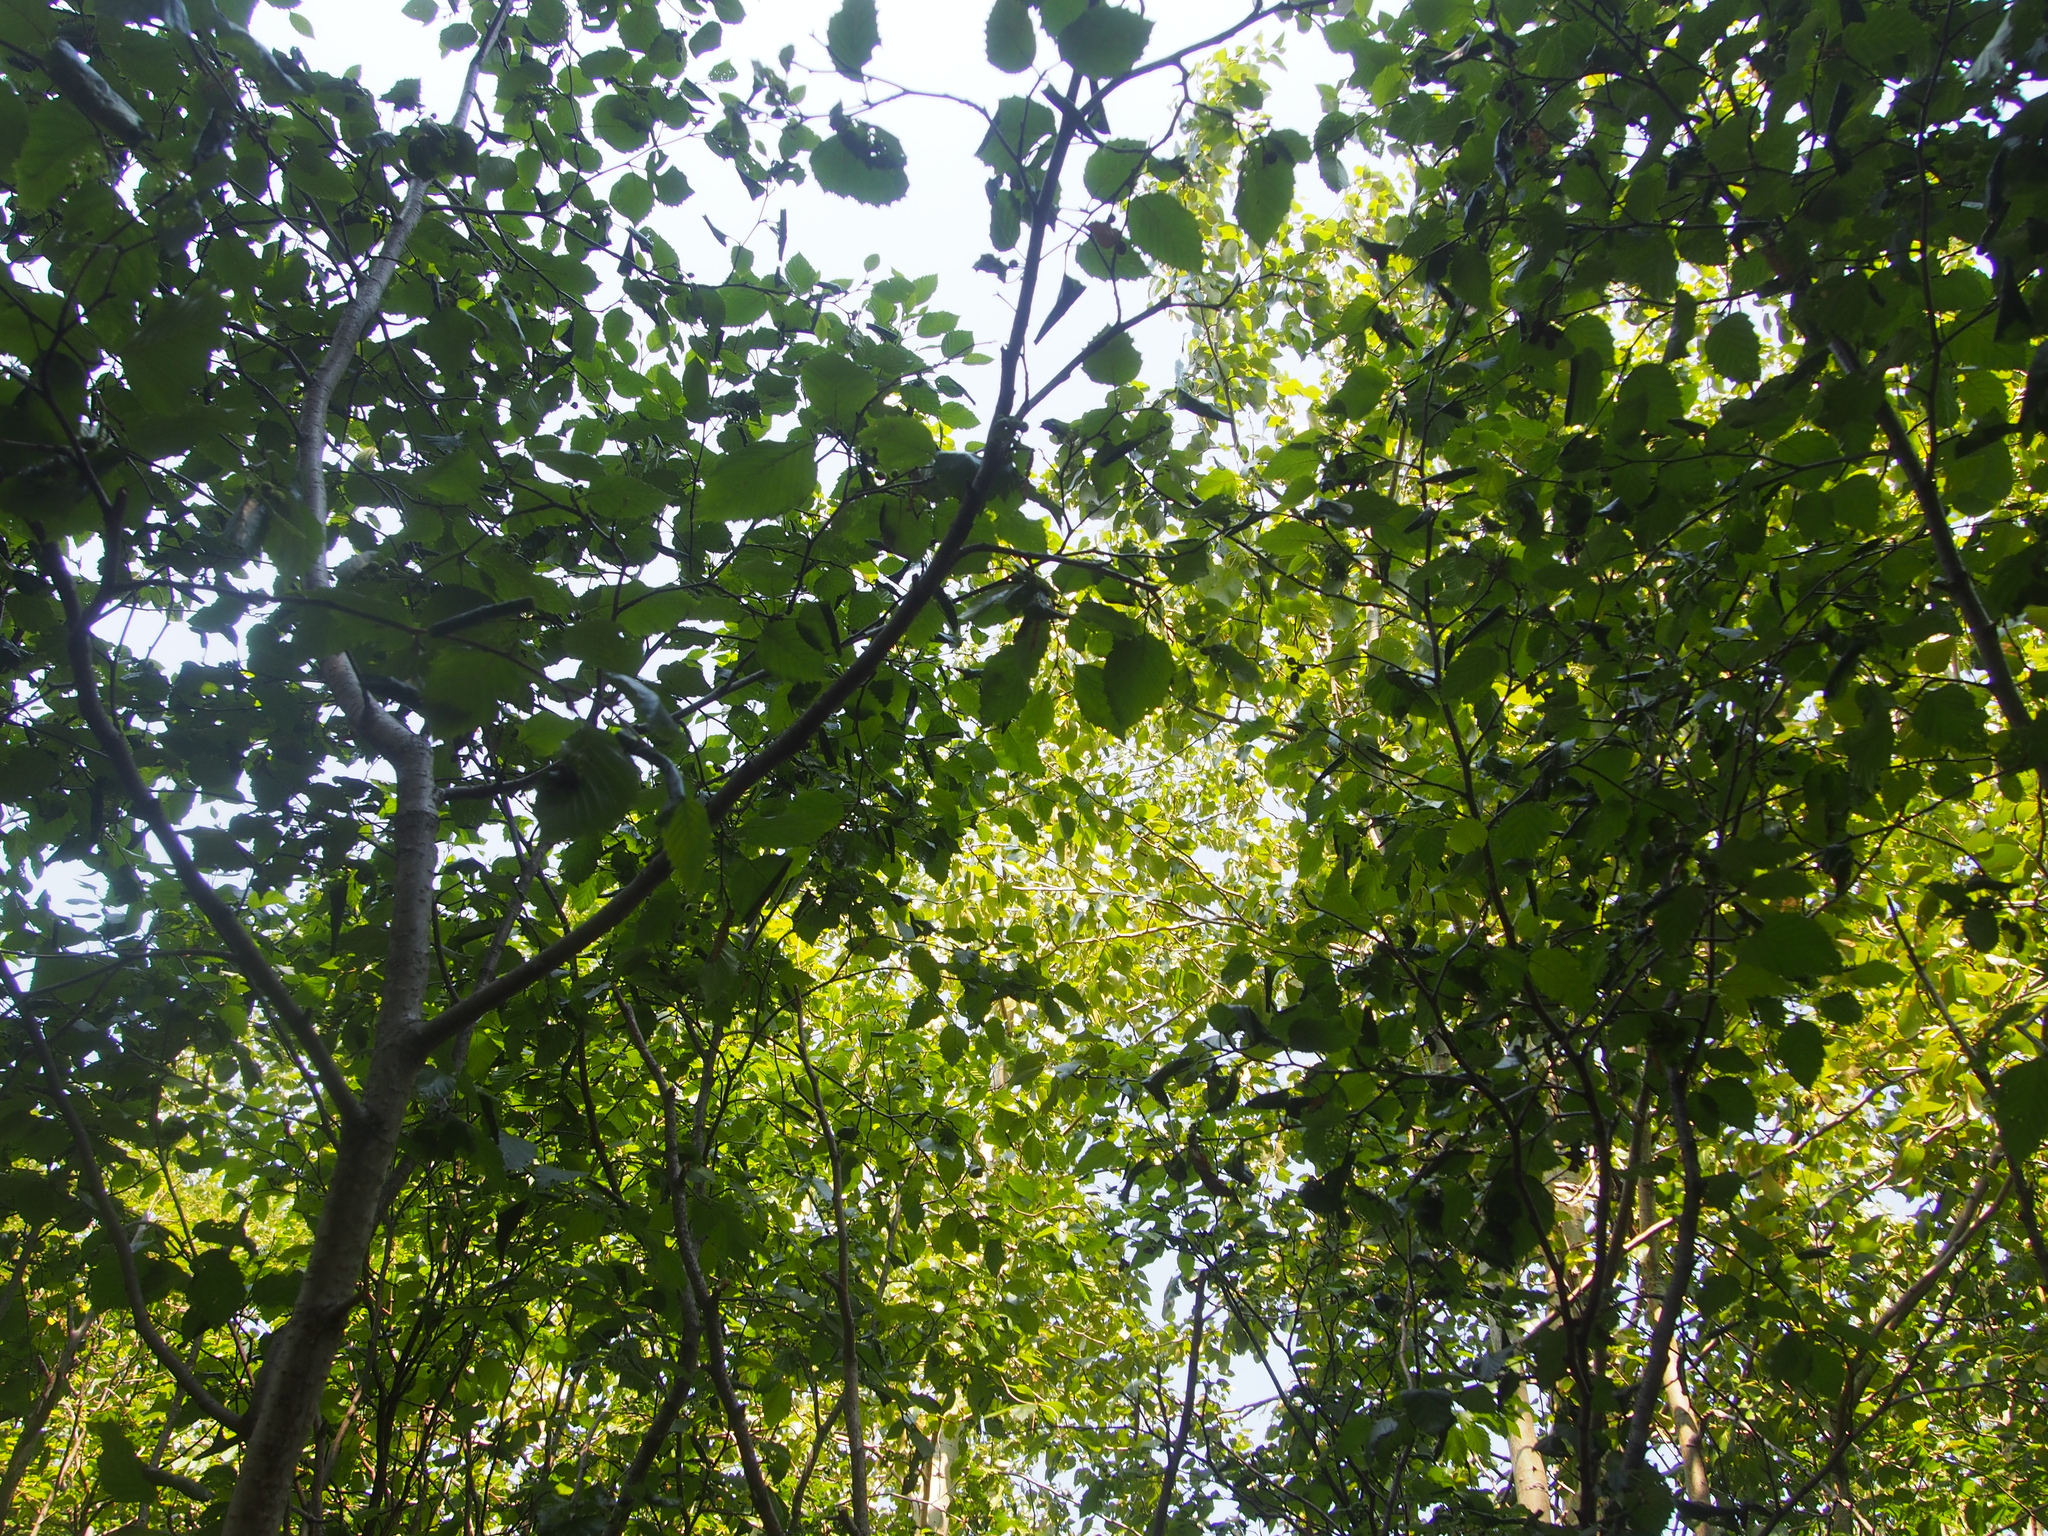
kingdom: Plantae
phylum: Tracheophyta
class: Magnoliopsida
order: Fagales
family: Betulaceae
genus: Alnus
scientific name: Alnus alnobetula
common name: Green alder
